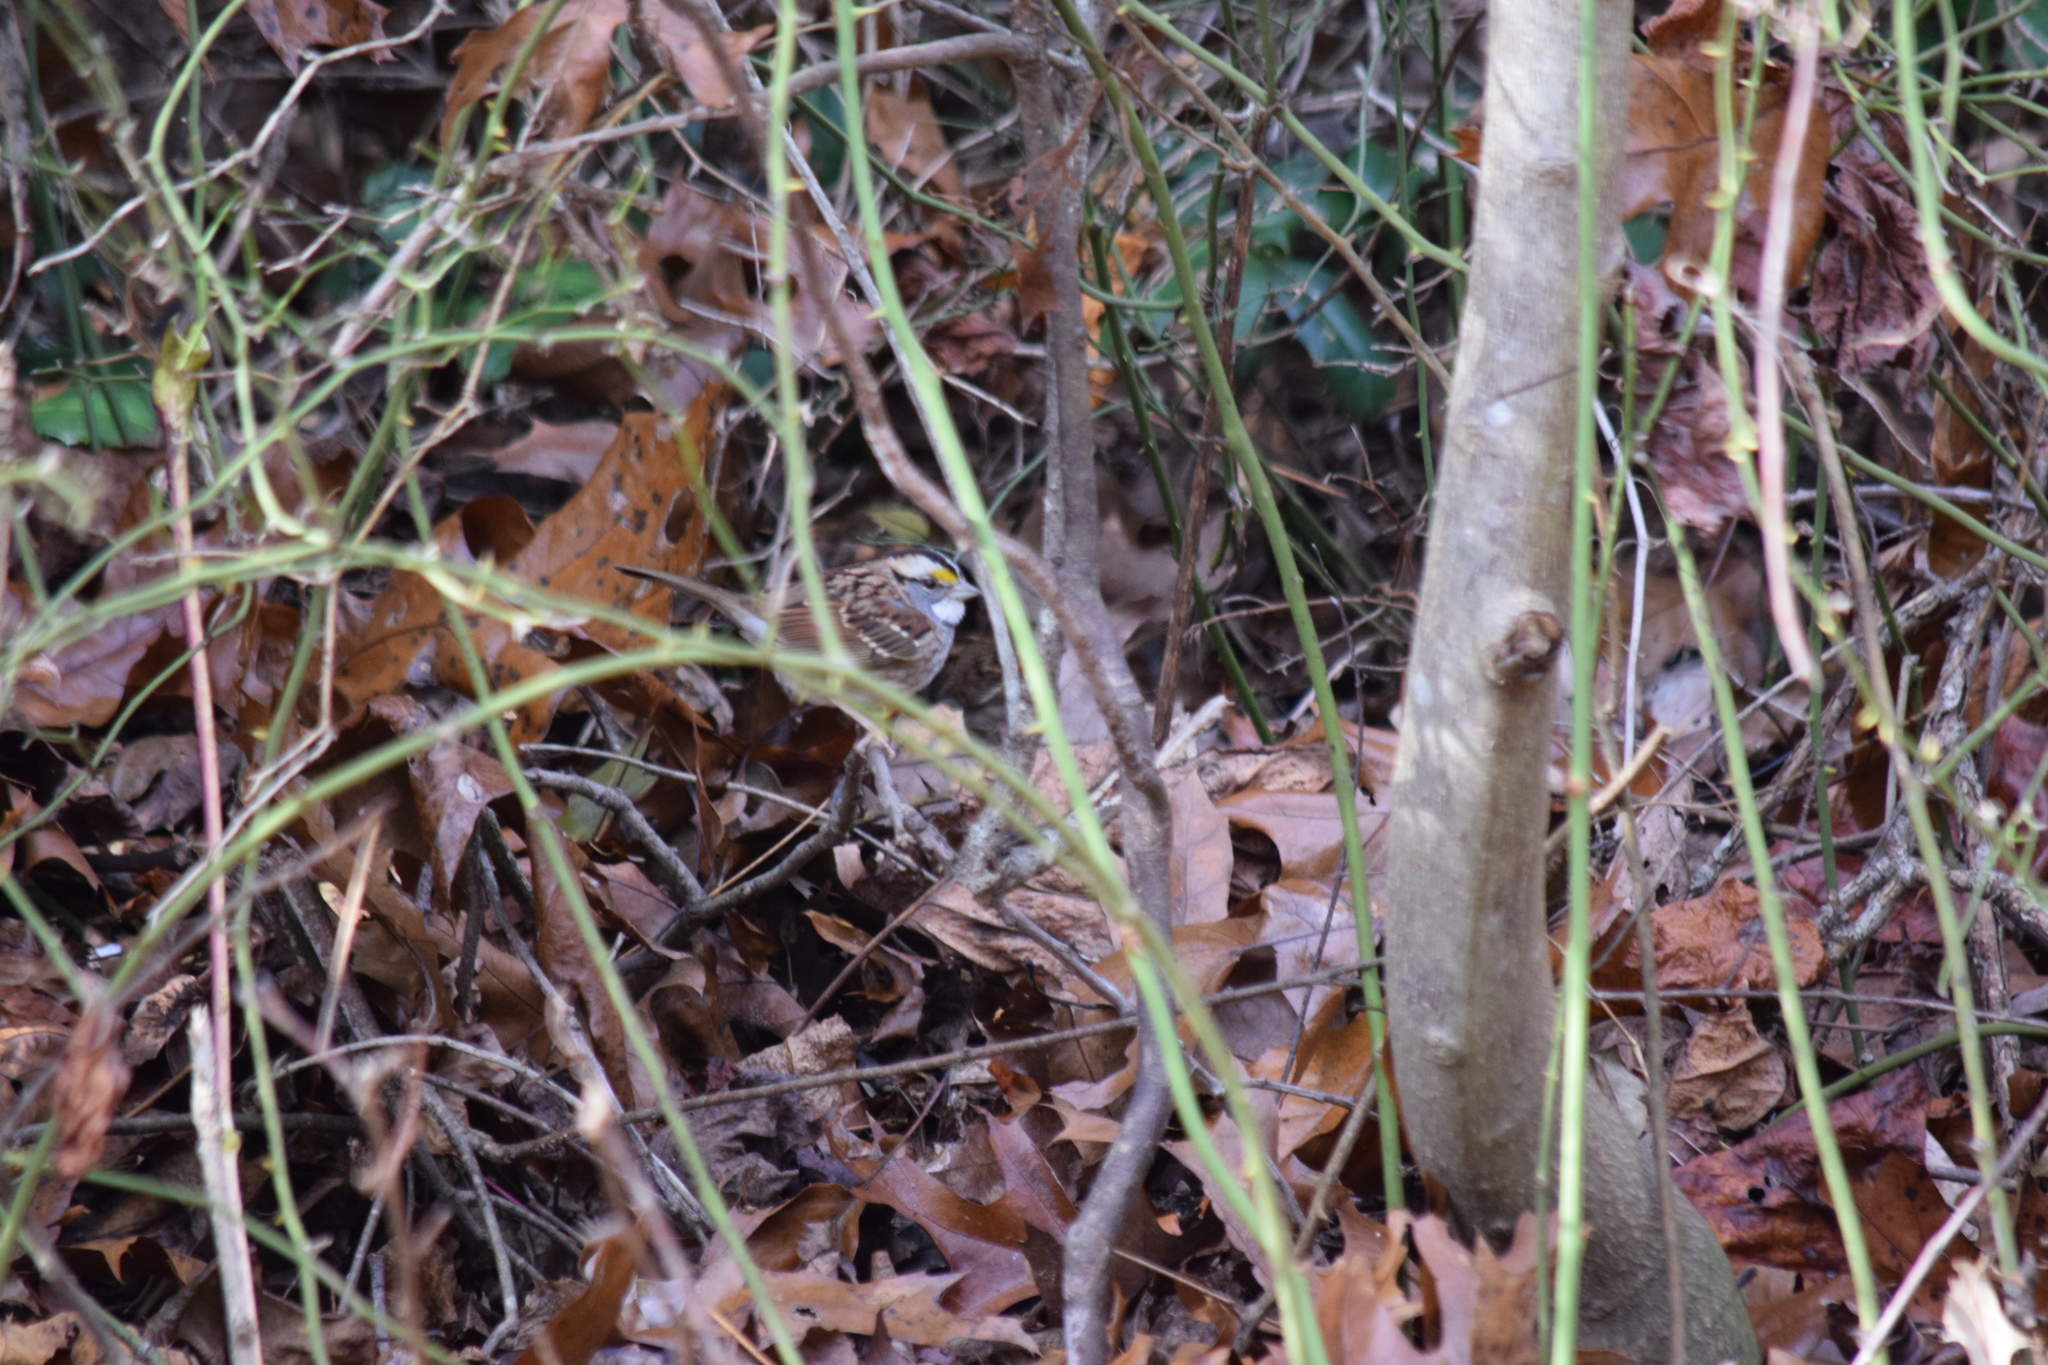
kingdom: Animalia
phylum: Chordata
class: Aves
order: Passeriformes
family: Passerellidae
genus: Zonotrichia
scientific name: Zonotrichia albicollis
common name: White-throated sparrow
